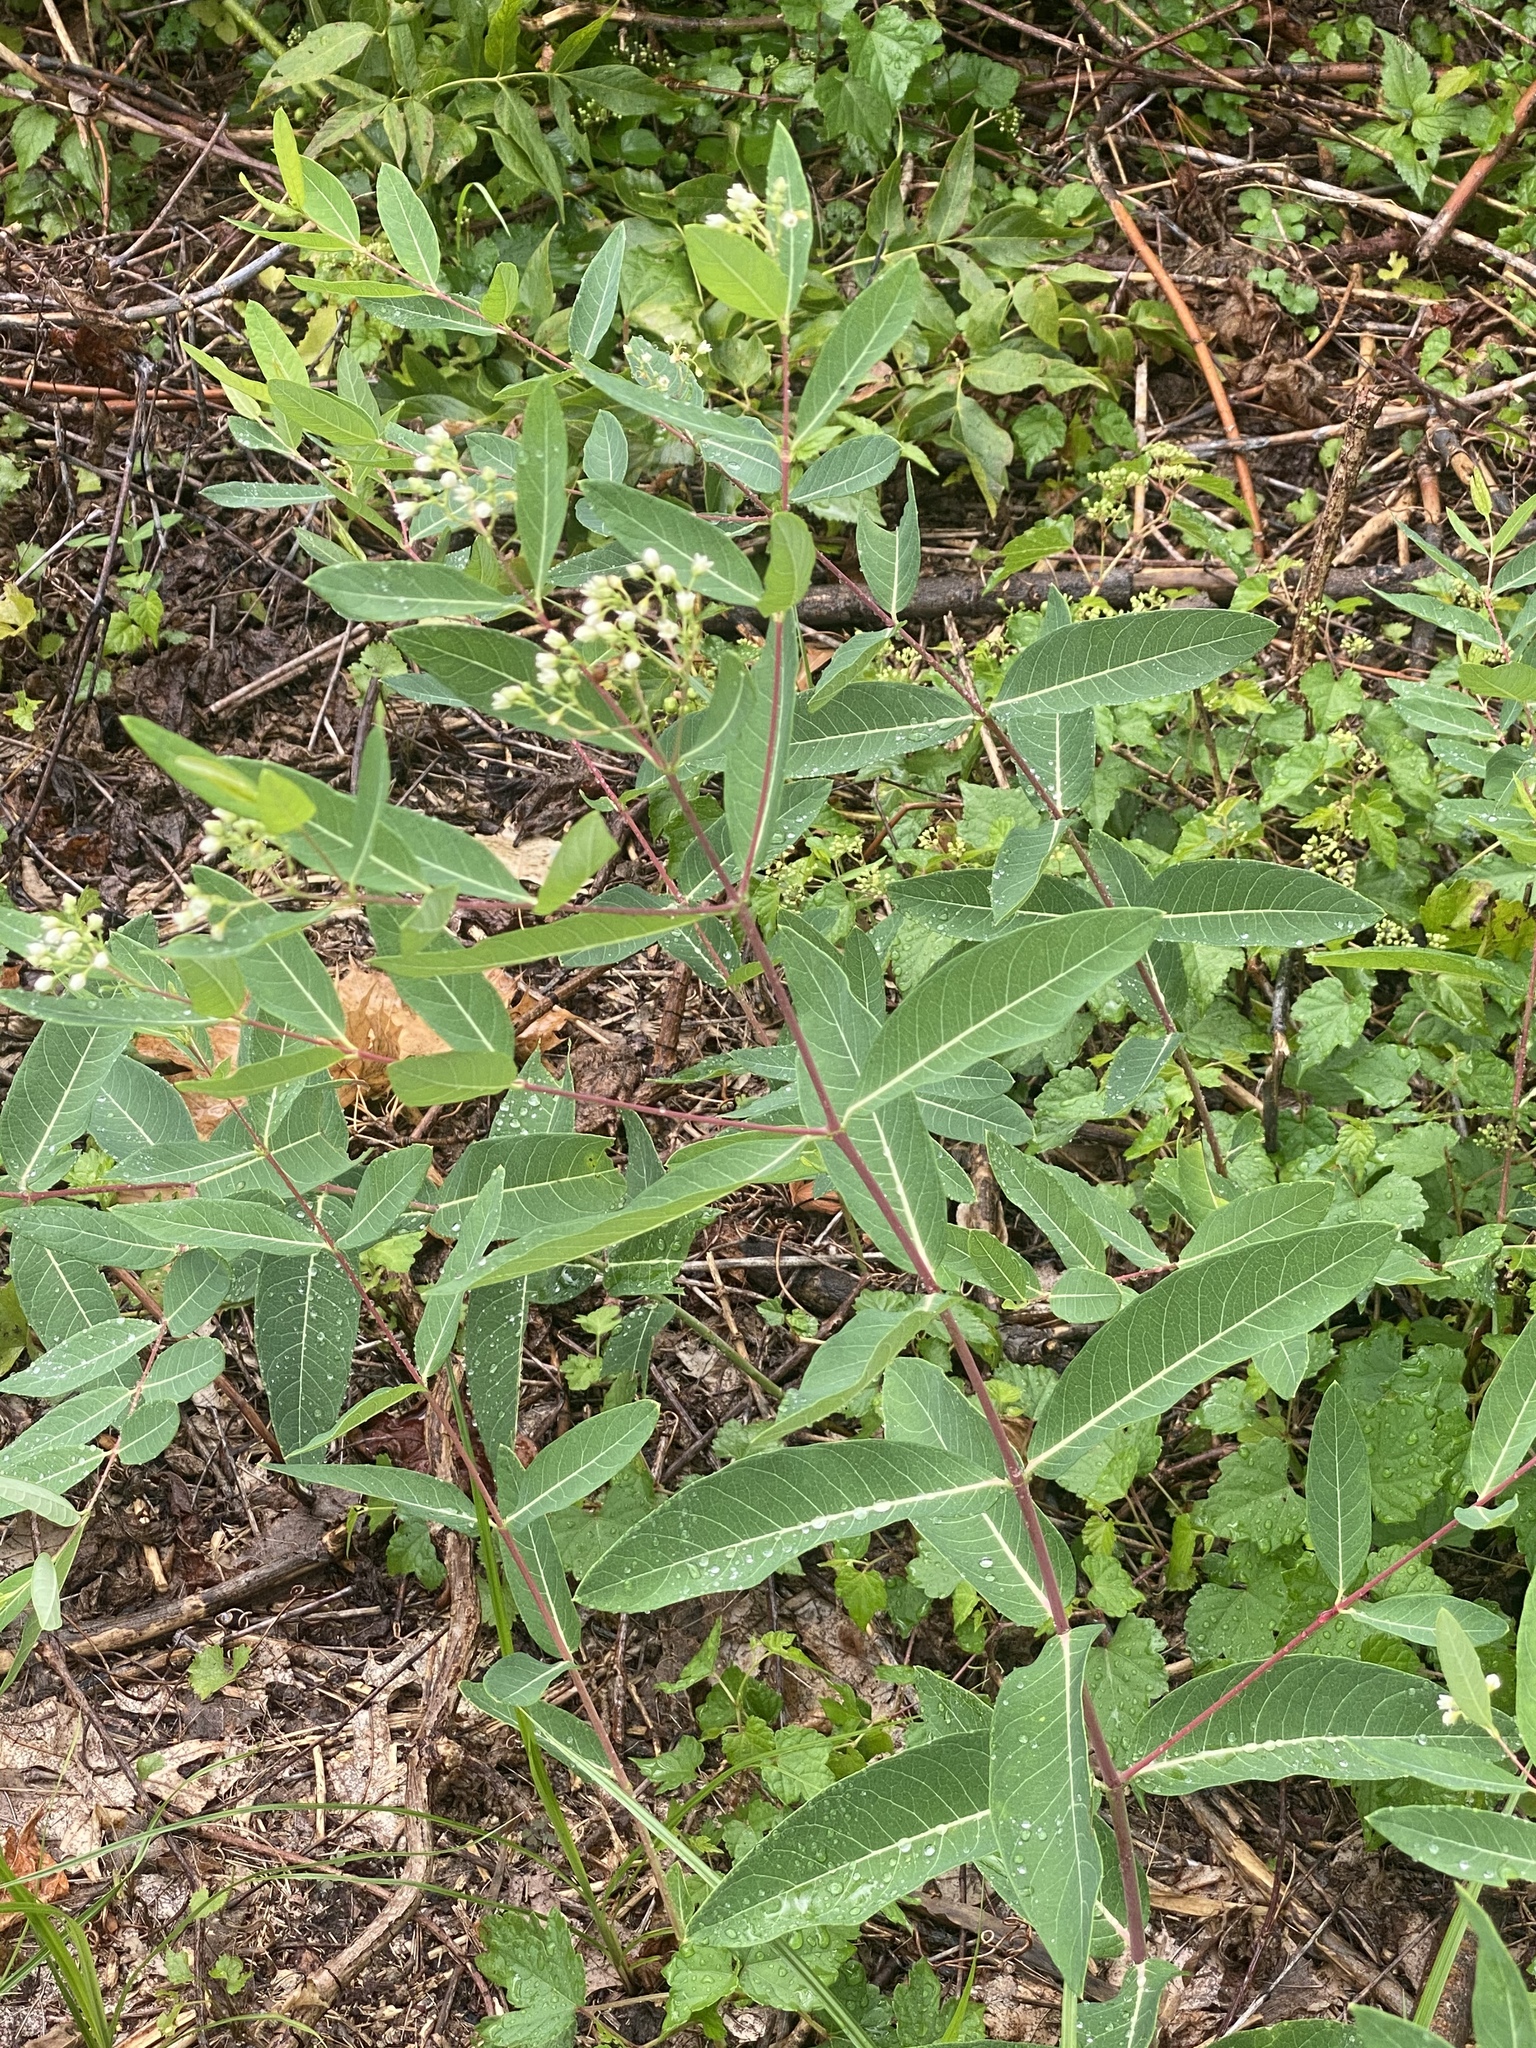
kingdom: Plantae
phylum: Tracheophyta
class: Magnoliopsida
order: Gentianales
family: Apocynaceae
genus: Apocynum
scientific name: Apocynum cannabinum
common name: Hemp dogbane
